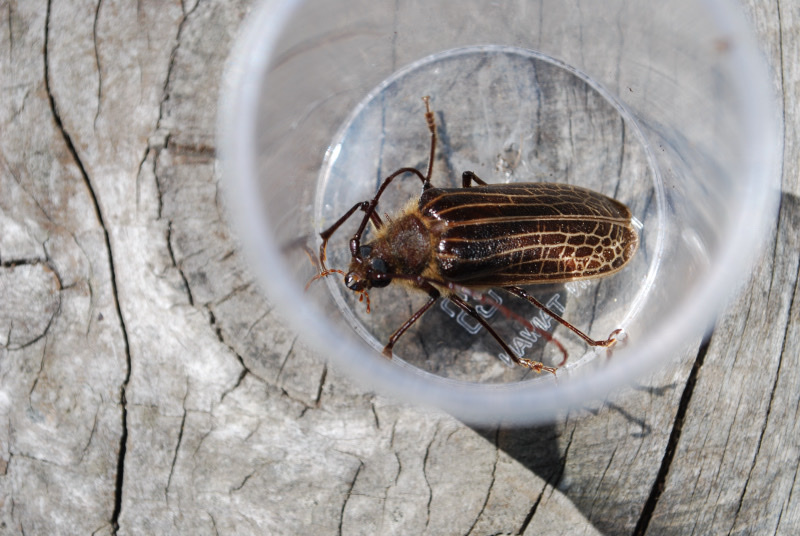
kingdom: Animalia
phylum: Arthropoda
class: Insecta
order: Coleoptera
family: Cerambycidae
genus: Prionoplus
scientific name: Prionoplus reticularis
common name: Huhu beetle
